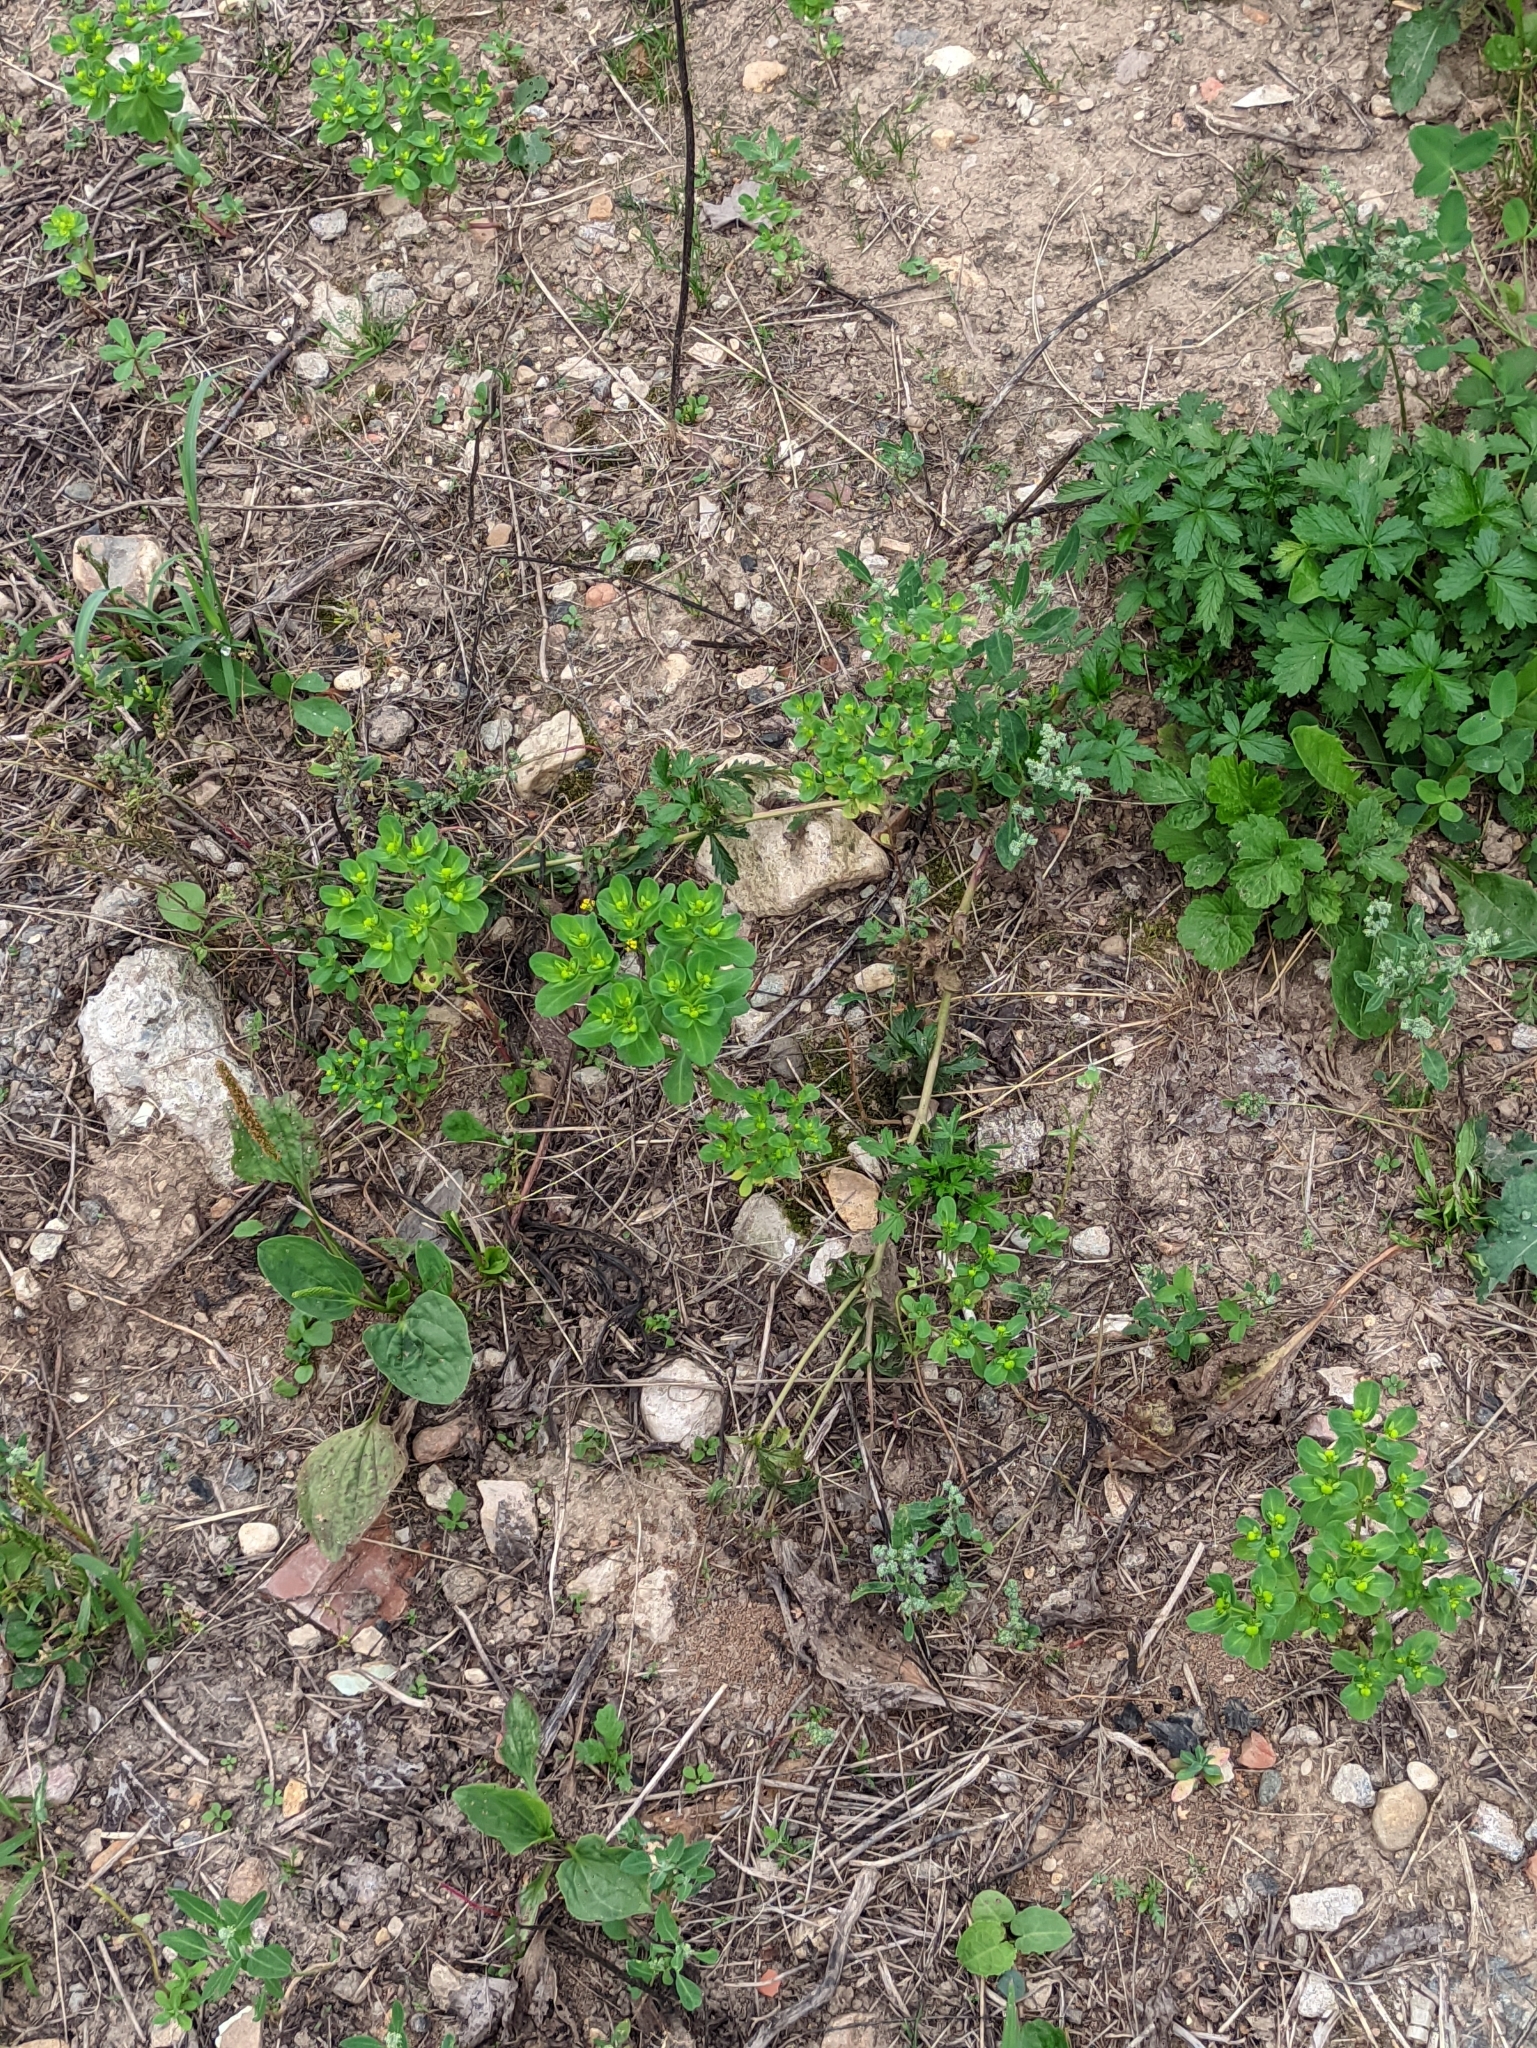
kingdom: Plantae
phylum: Tracheophyta
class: Magnoliopsida
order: Malpighiales
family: Euphorbiaceae
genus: Euphorbia
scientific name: Euphorbia helioscopia
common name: Sun spurge
